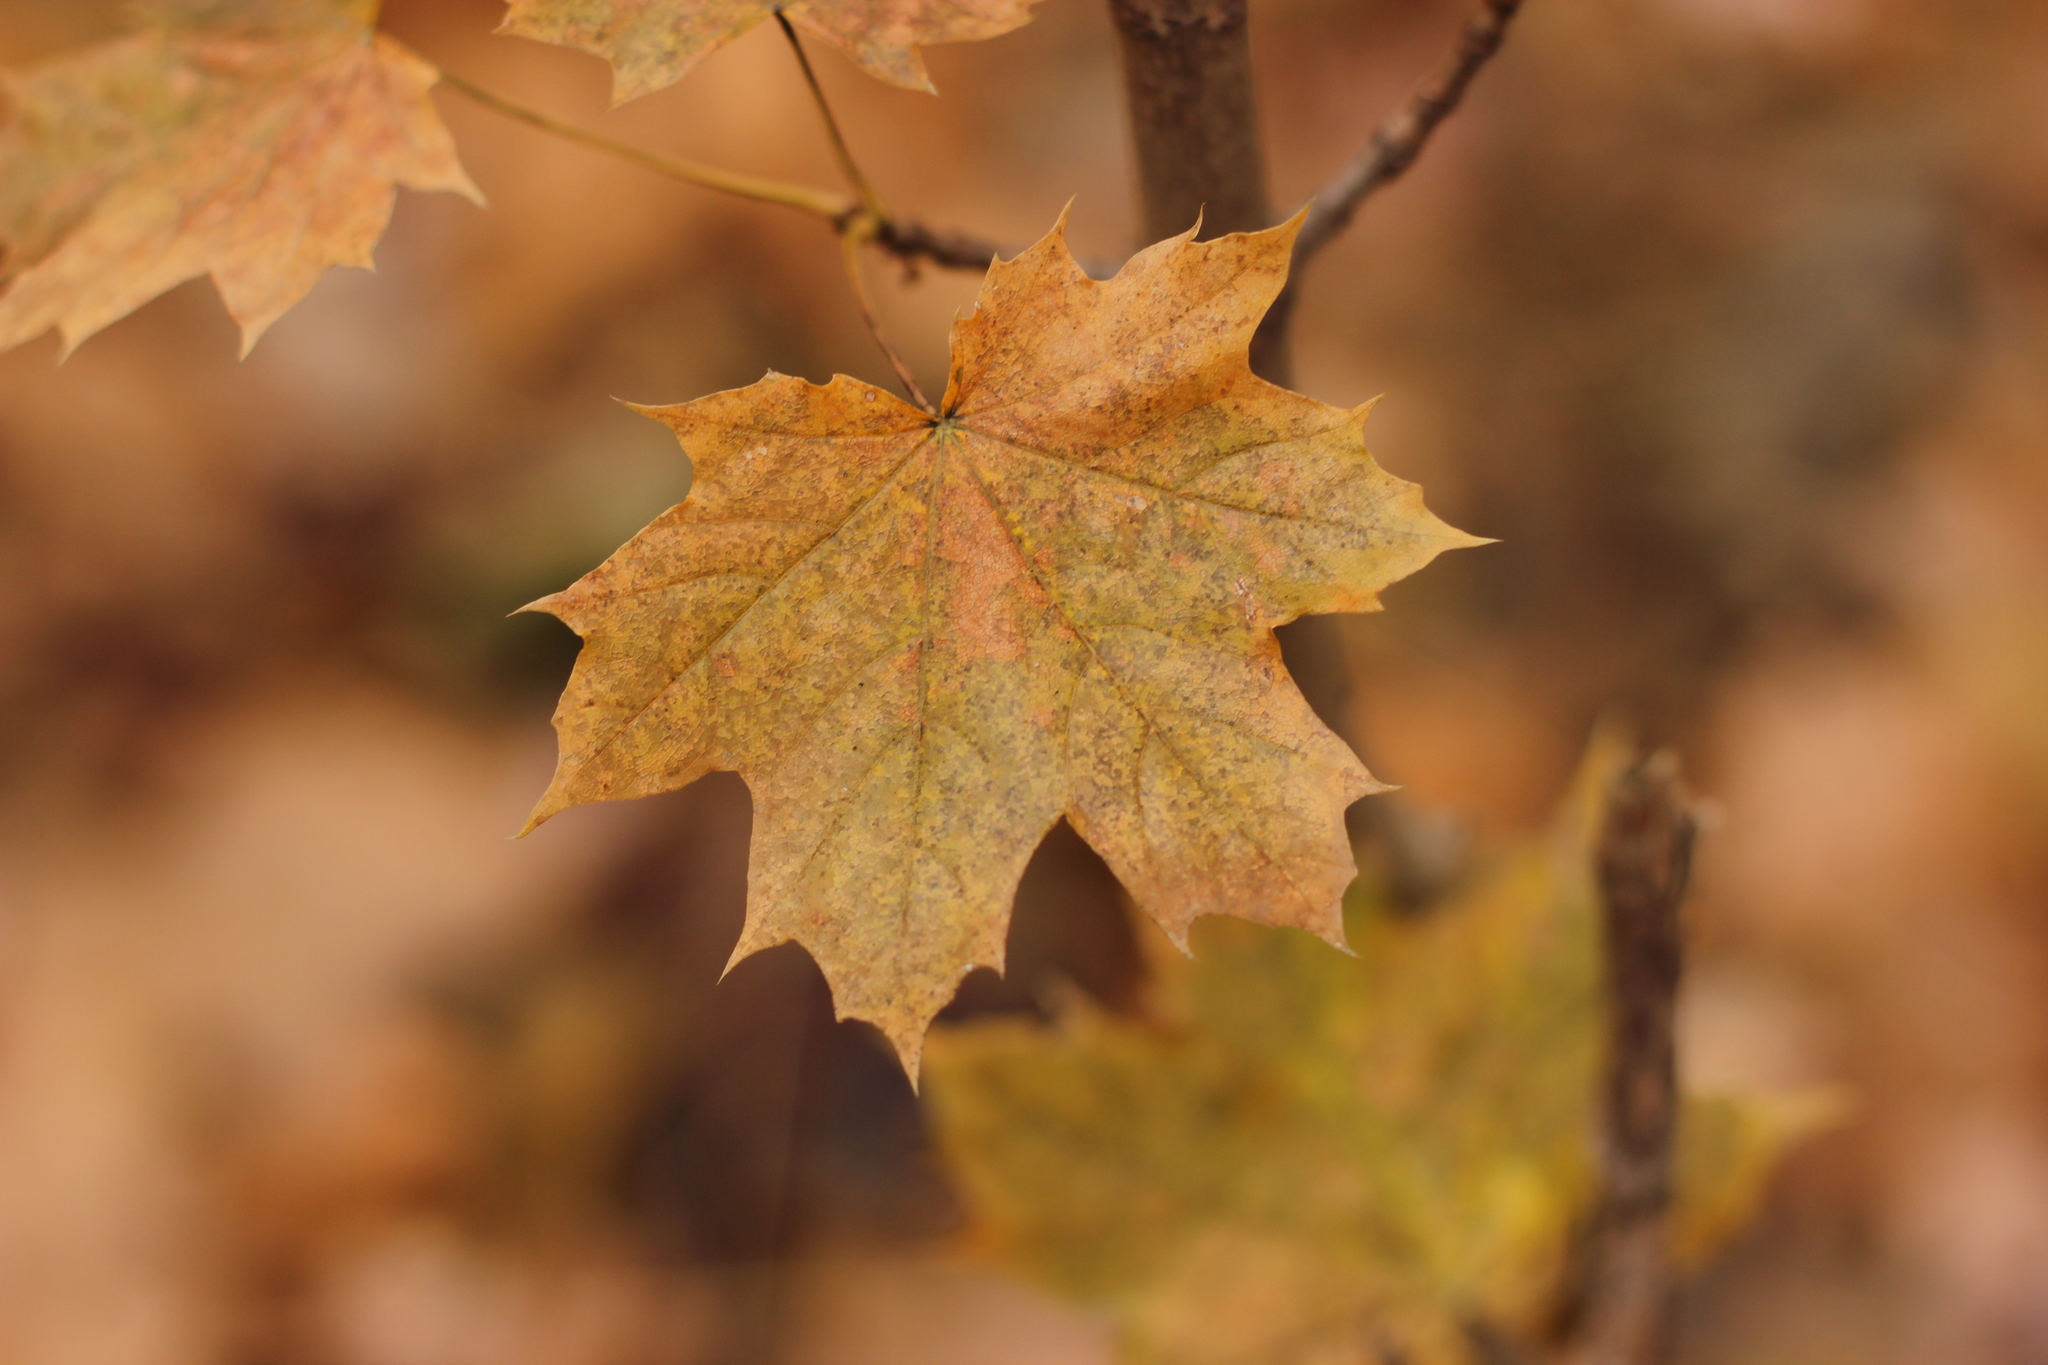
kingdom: Plantae
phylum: Tracheophyta
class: Magnoliopsida
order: Sapindales
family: Sapindaceae
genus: Acer
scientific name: Acer platanoides
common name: Norway maple
